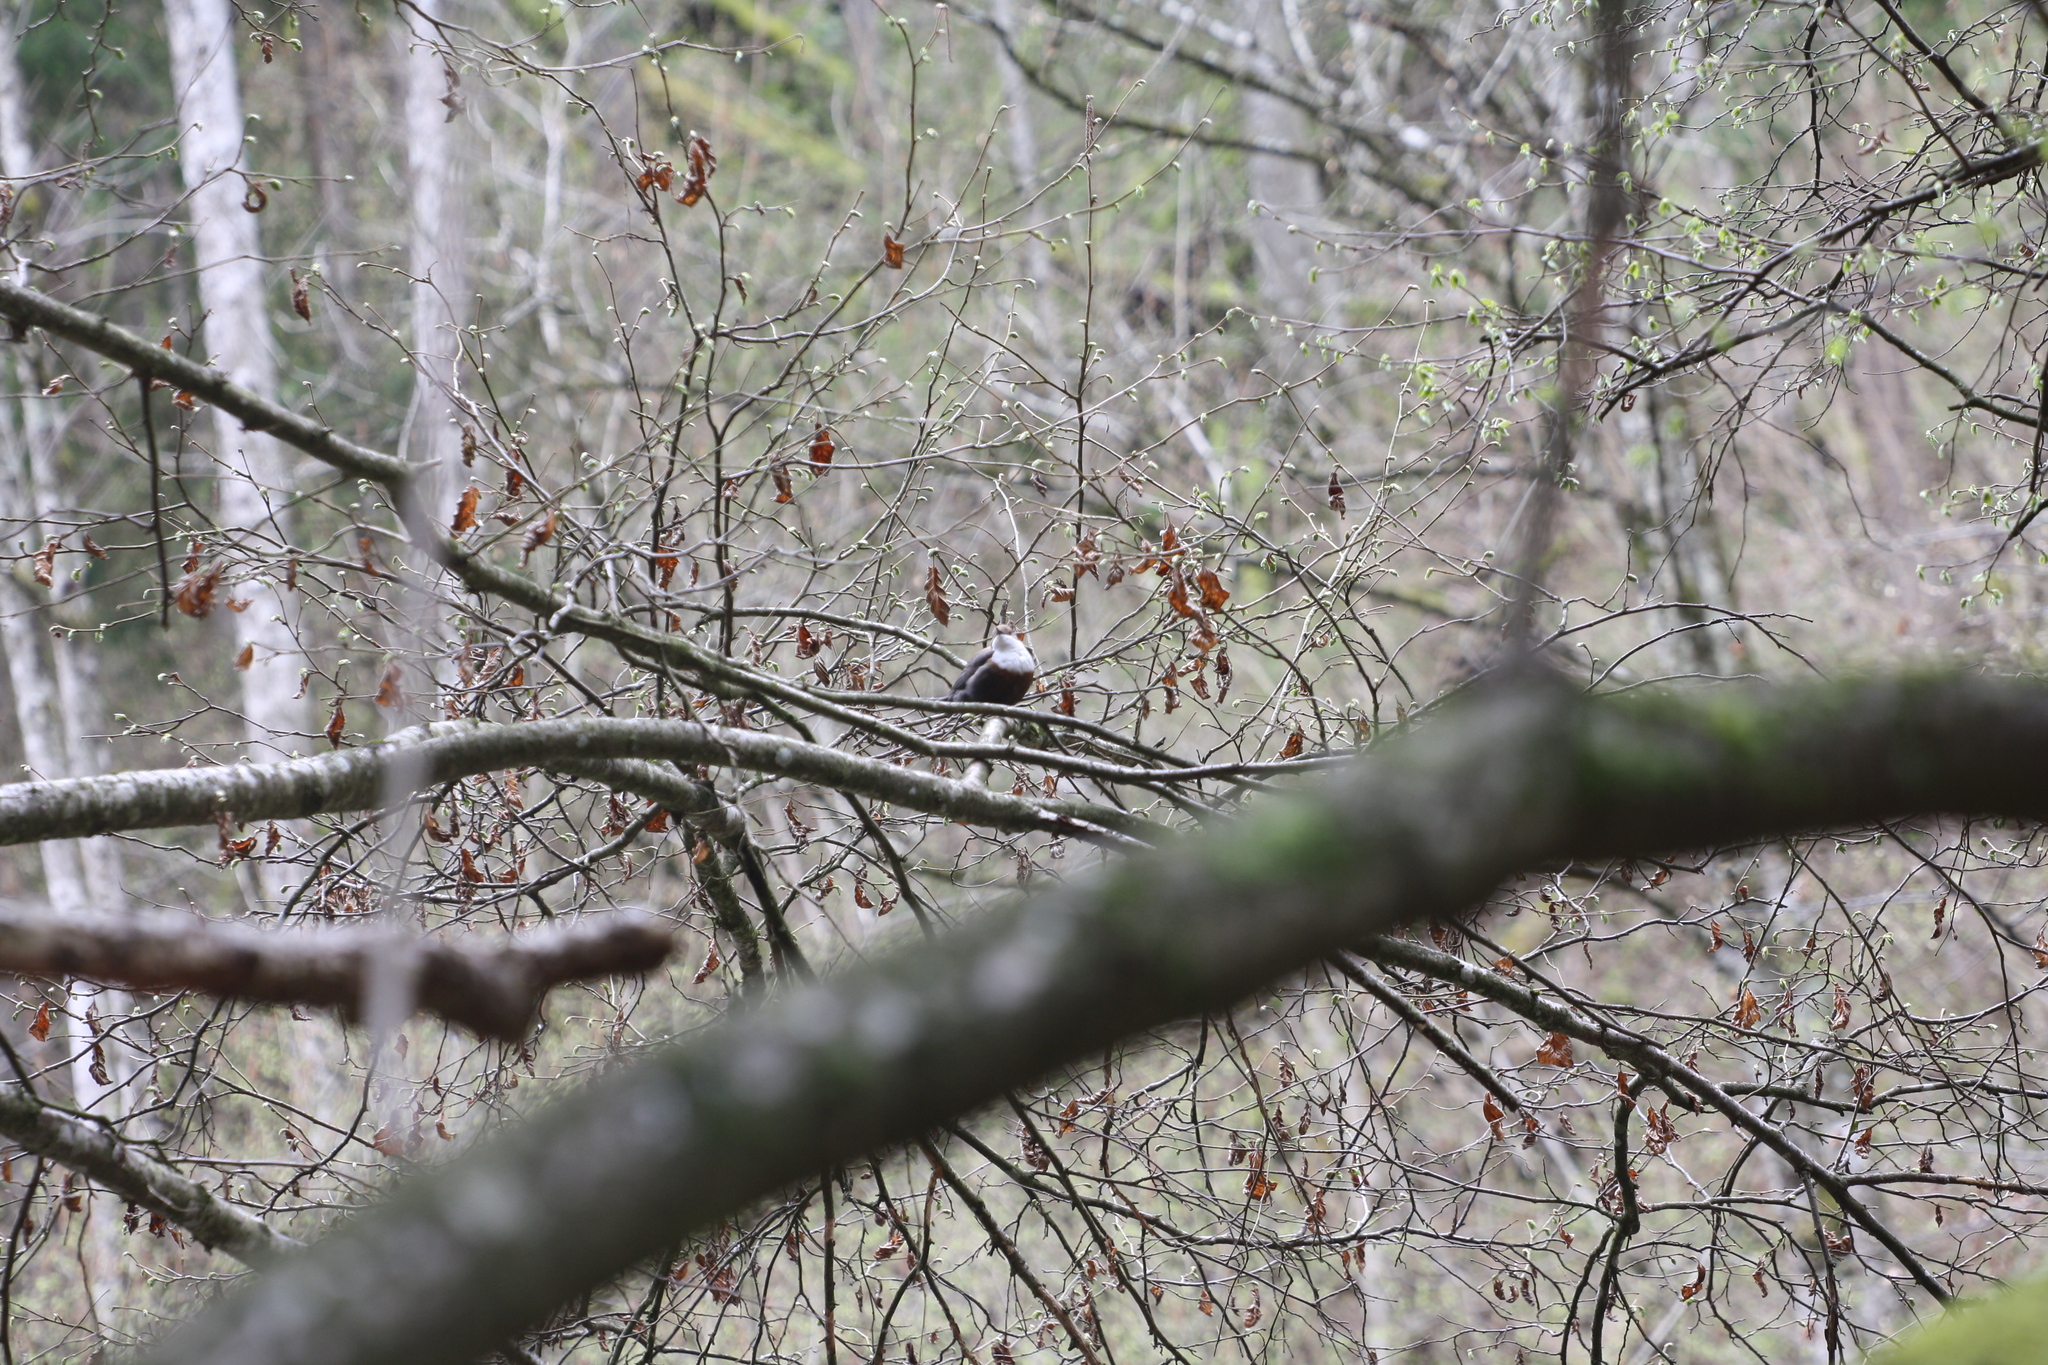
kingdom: Animalia
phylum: Chordata
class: Aves
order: Passeriformes
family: Cinclidae
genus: Cinclus
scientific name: Cinclus cinclus
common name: White-throated dipper
